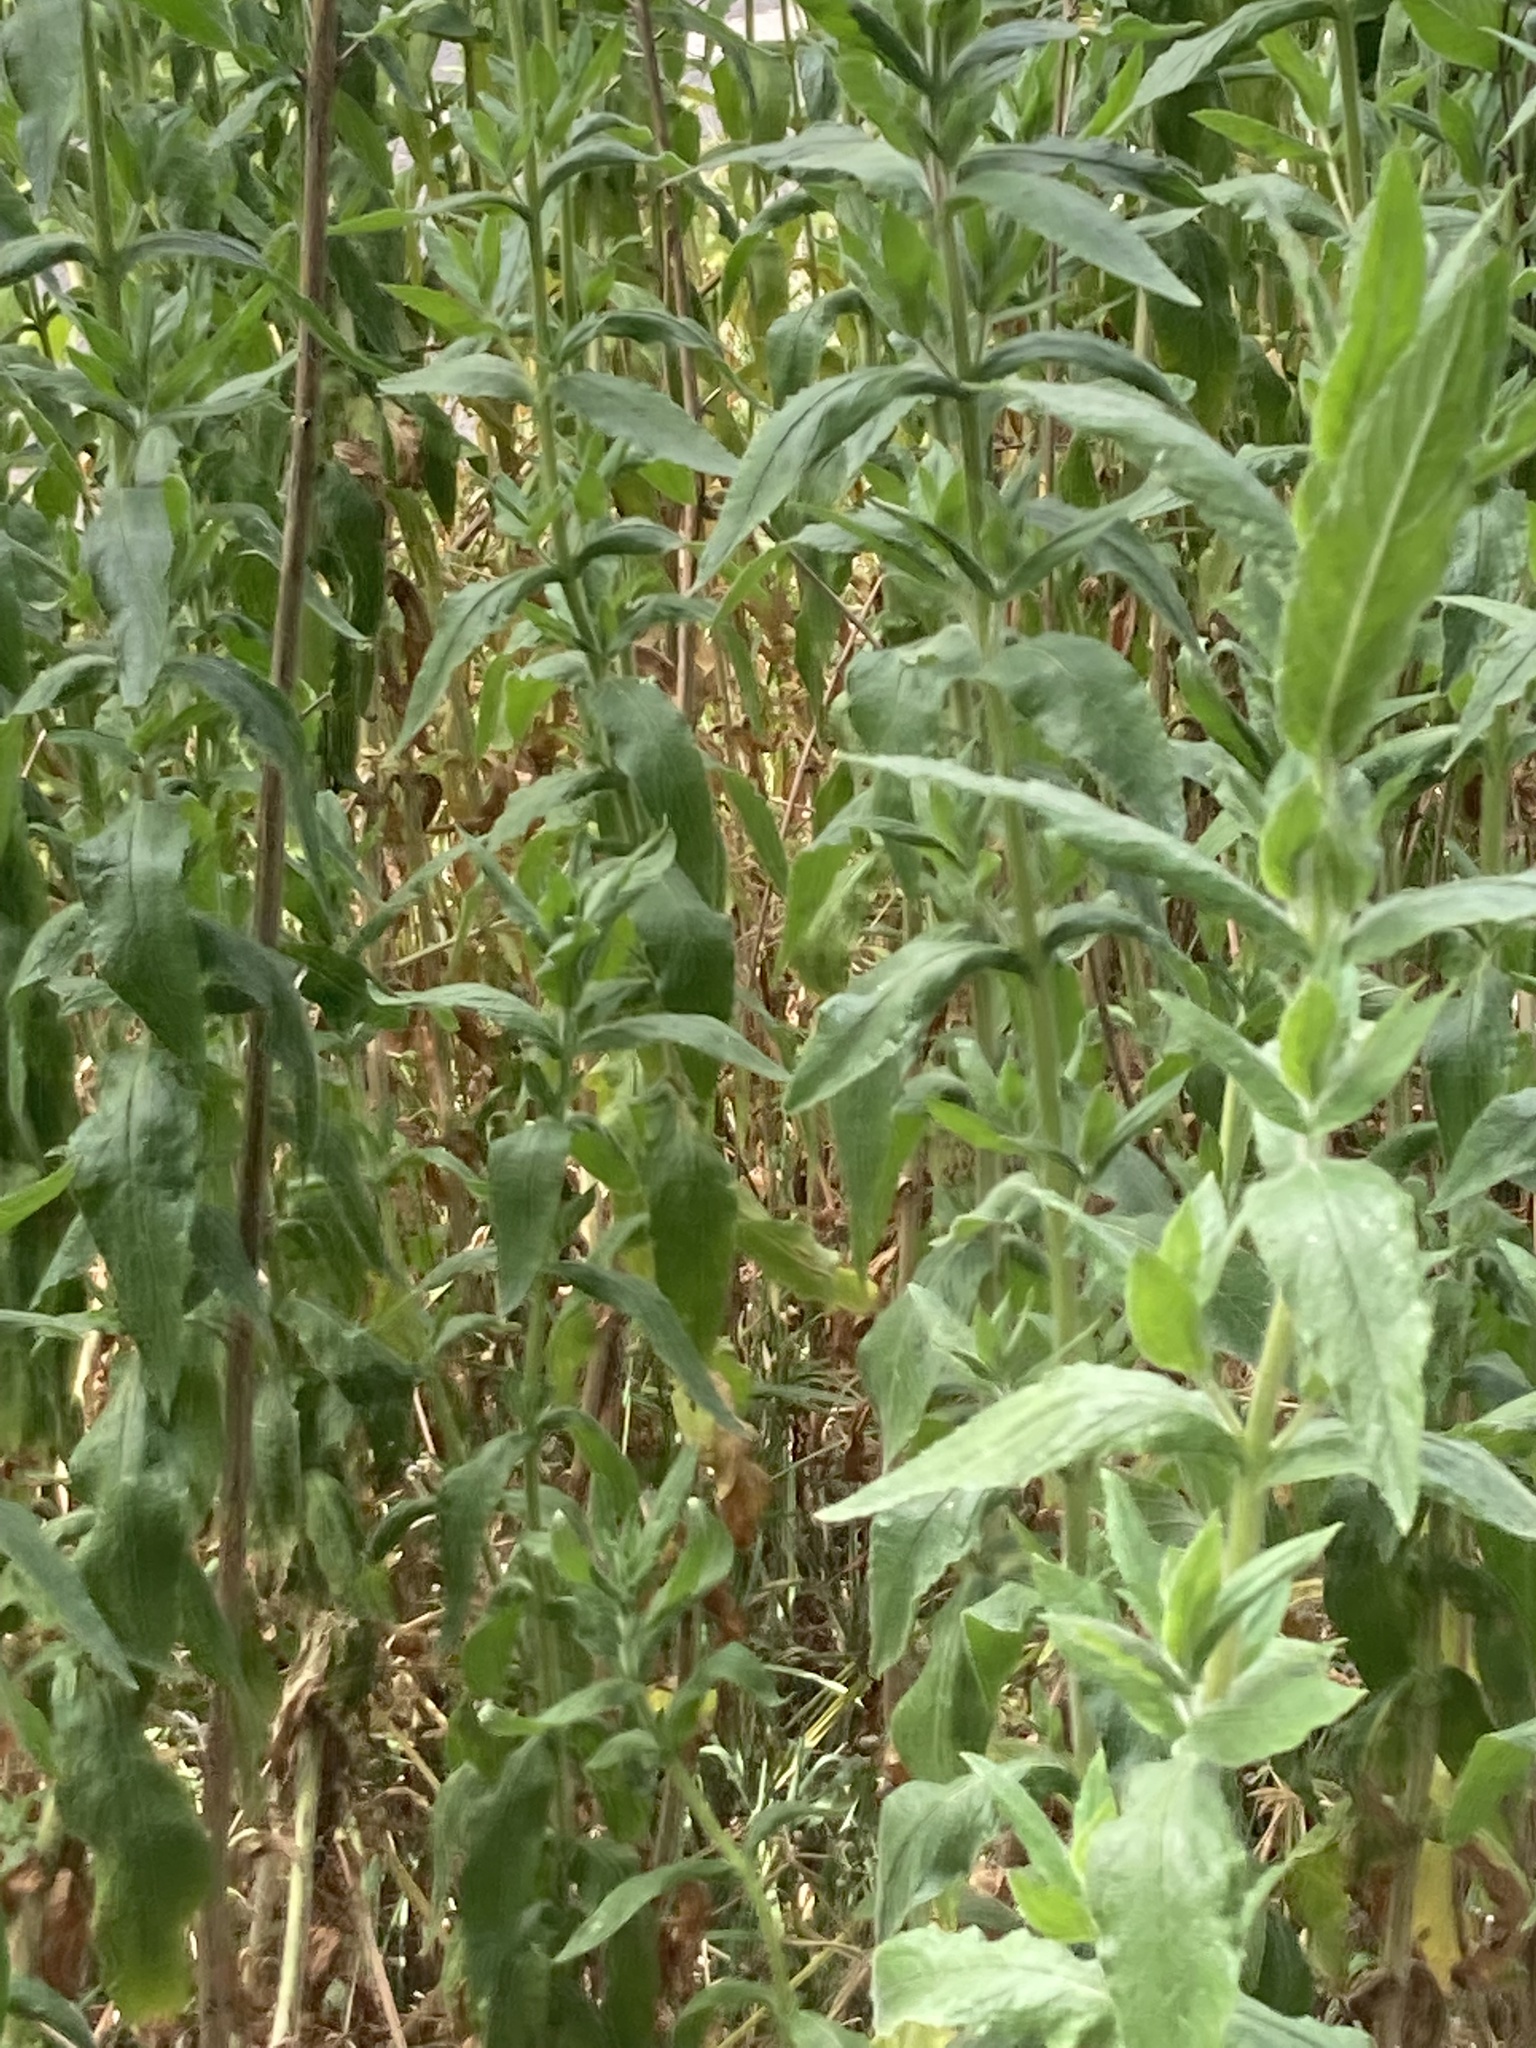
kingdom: Plantae
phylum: Tracheophyta
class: Magnoliopsida
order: Myrtales
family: Onagraceae
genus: Epilobium
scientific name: Epilobium hirsutum
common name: Great willowherb
